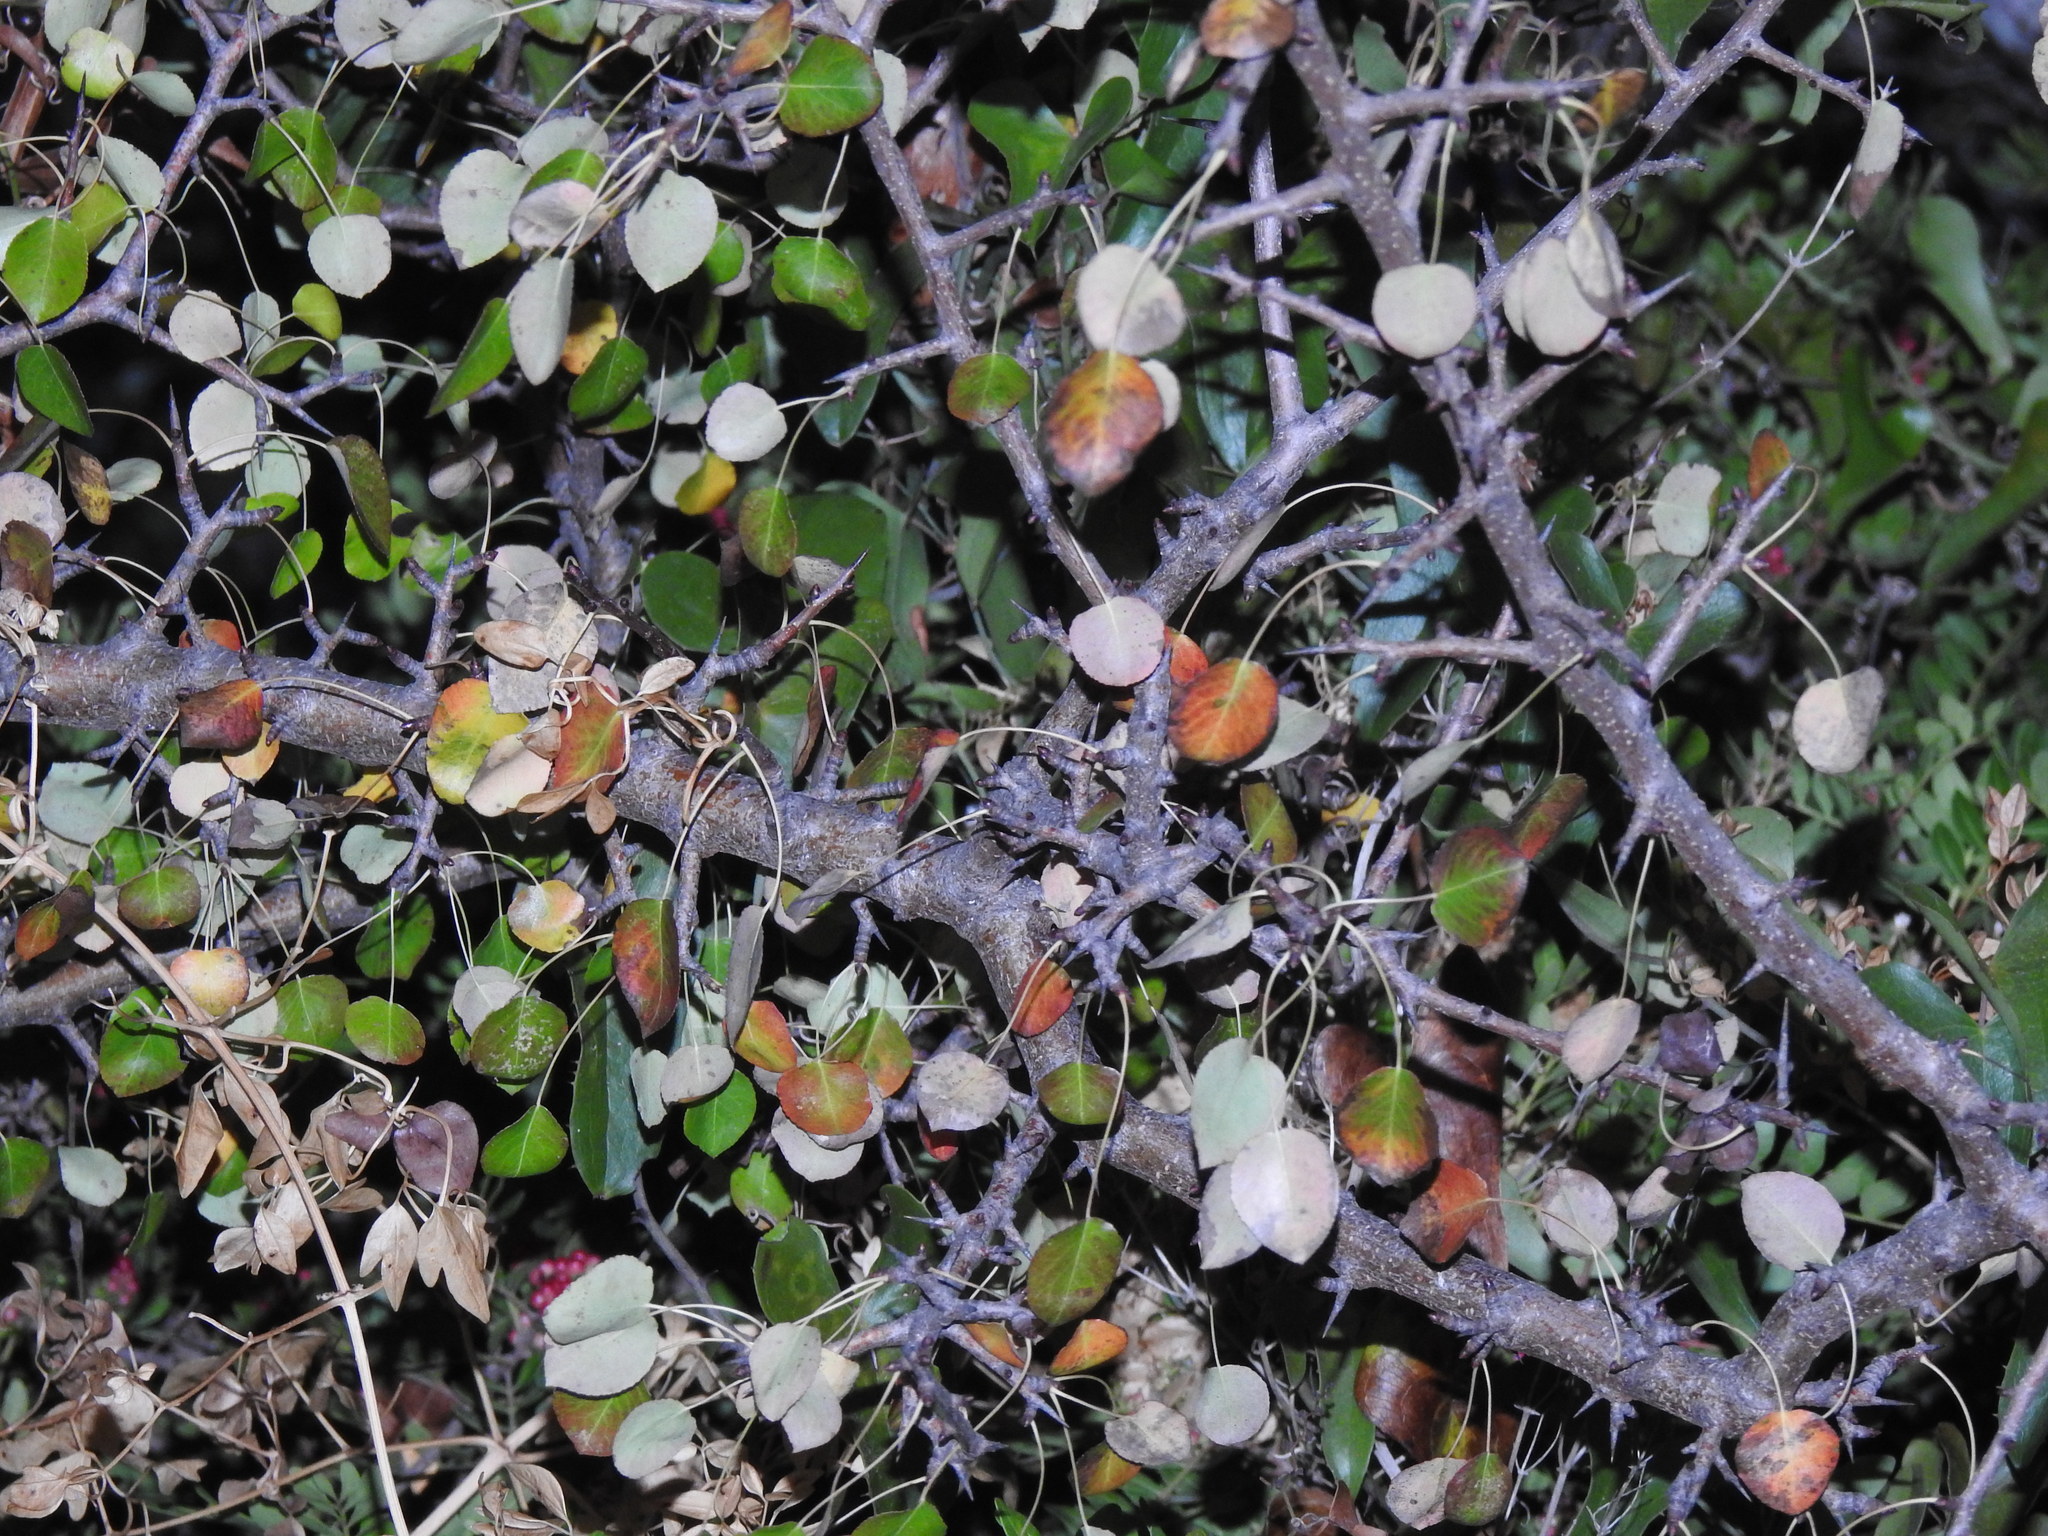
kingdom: Plantae
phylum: Tracheophyta
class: Magnoliopsida
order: Rosales
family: Rosaceae
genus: Pyrus
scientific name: Pyrus bourgaeana
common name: Iberian pear
